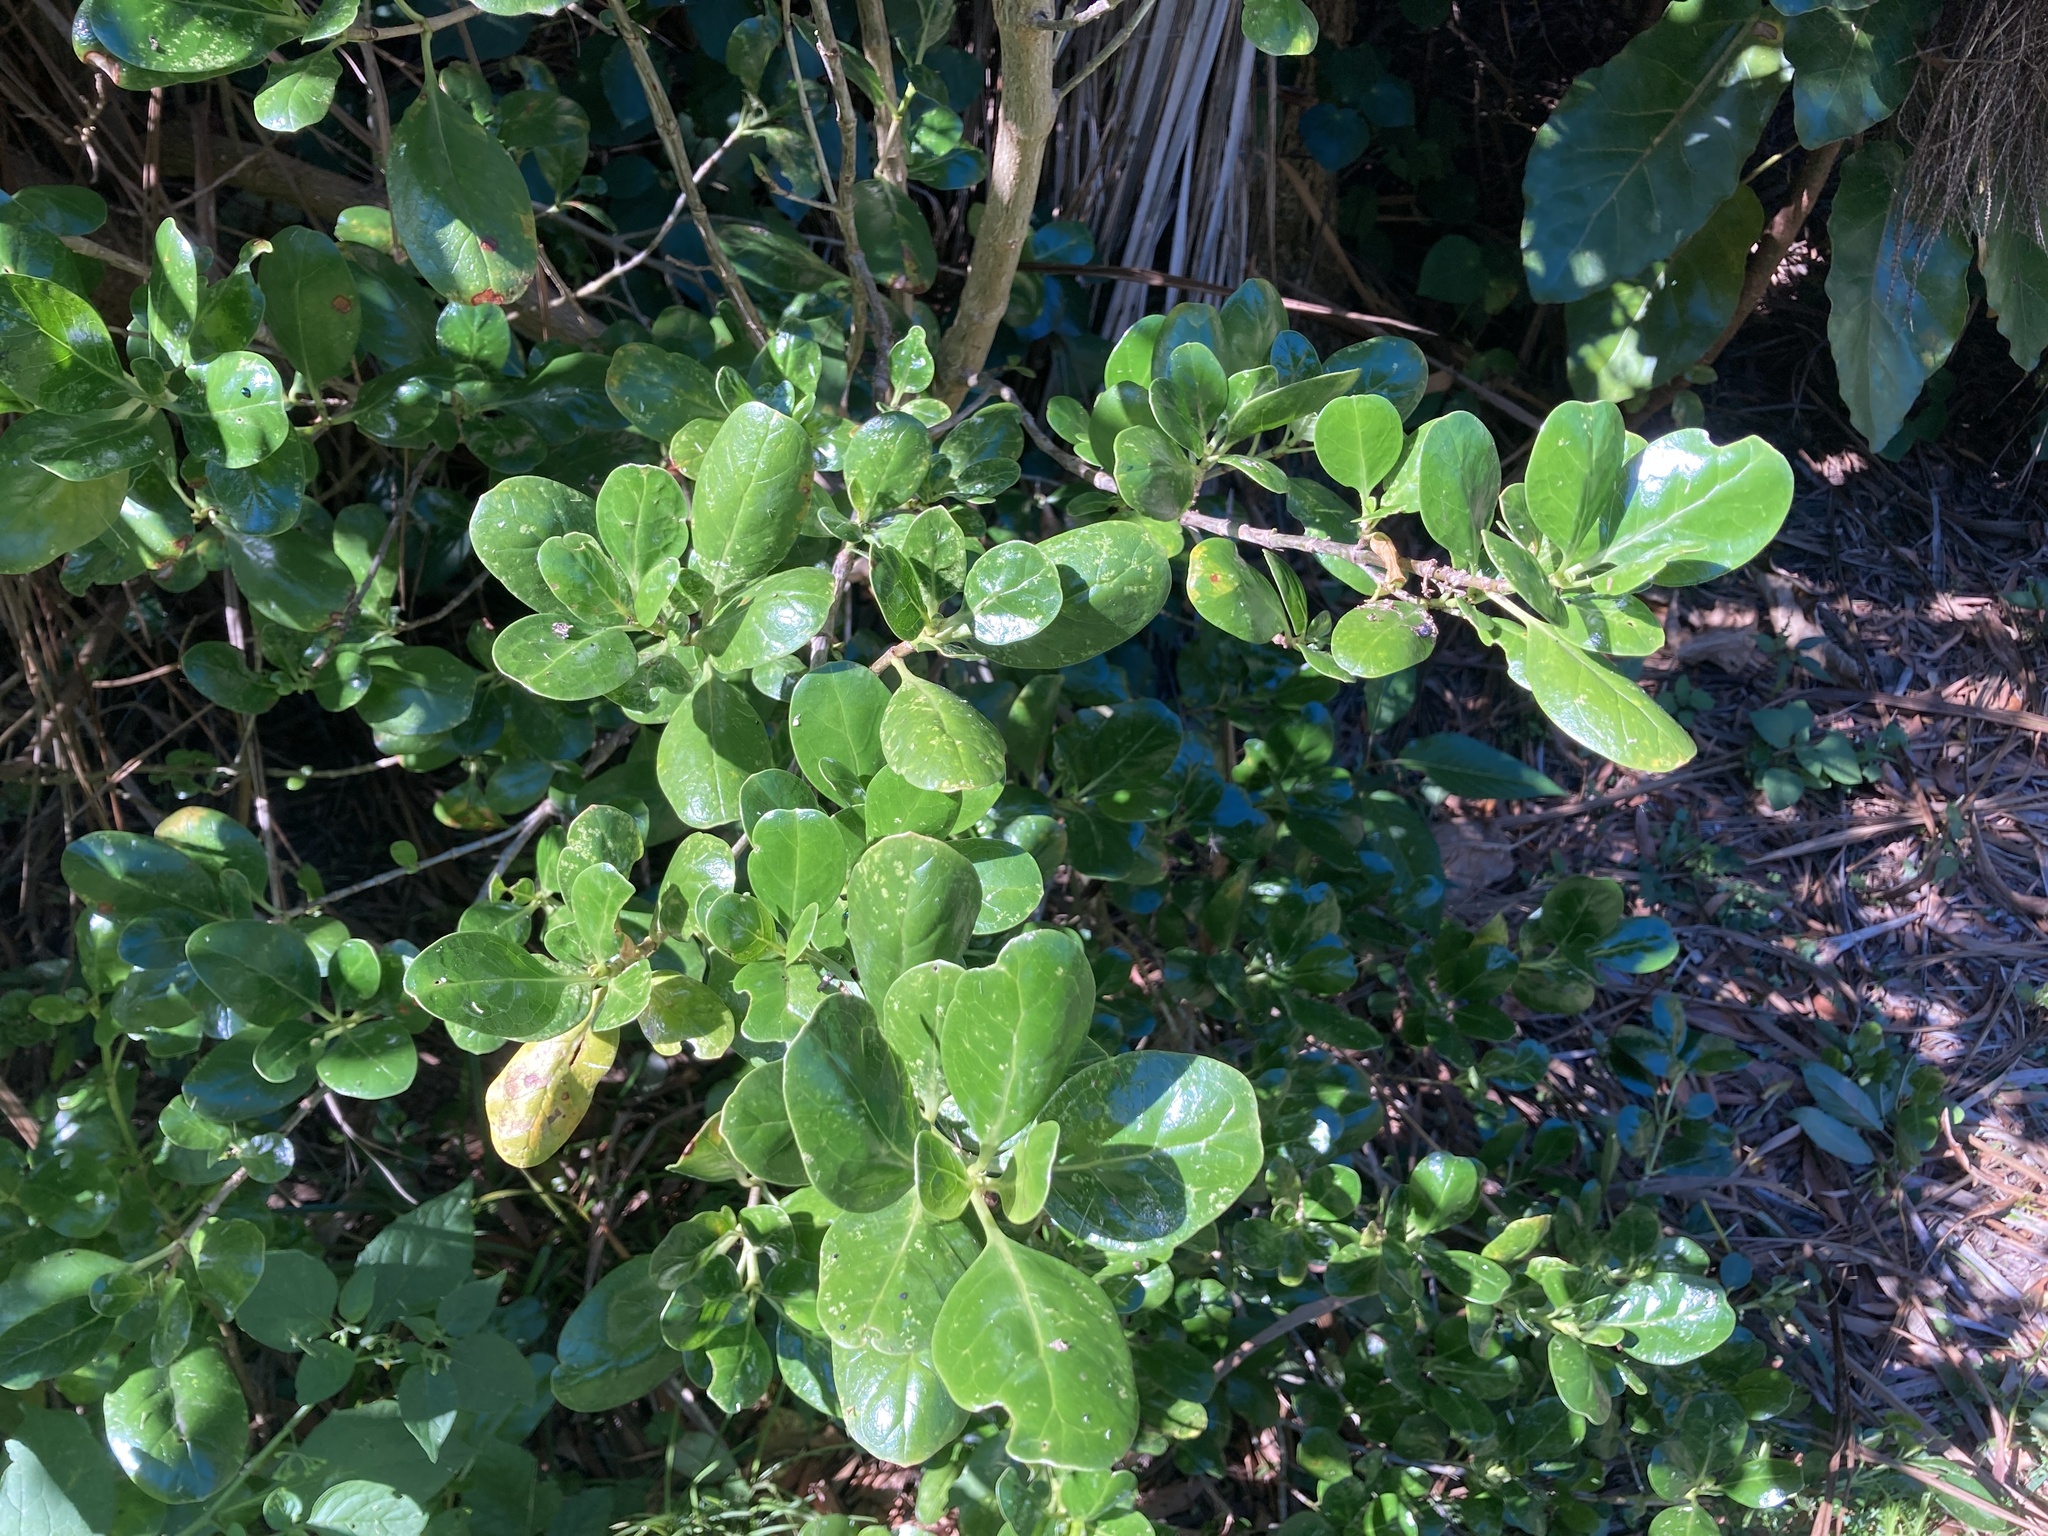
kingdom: Plantae
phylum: Tracheophyta
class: Magnoliopsida
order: Gentianales
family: Rubiaceae
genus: Coprosma
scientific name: Coprosma repens
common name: Tree bedstraw
